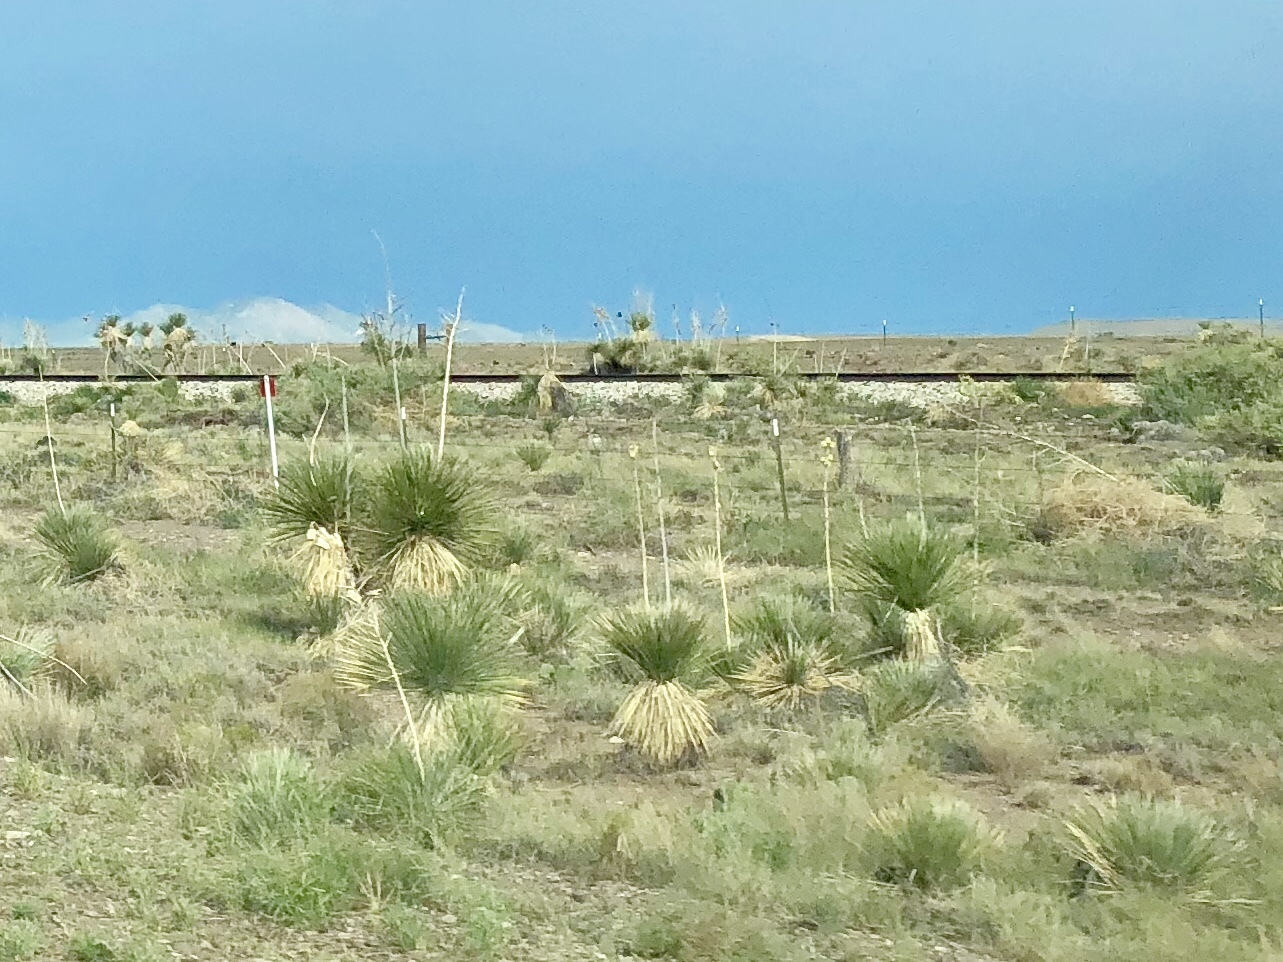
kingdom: Plantae
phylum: Tracheophyta
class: Liliopsida
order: Asparagales
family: Asparagaceae
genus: Yucca
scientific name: Yucca elata
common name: Palmella
